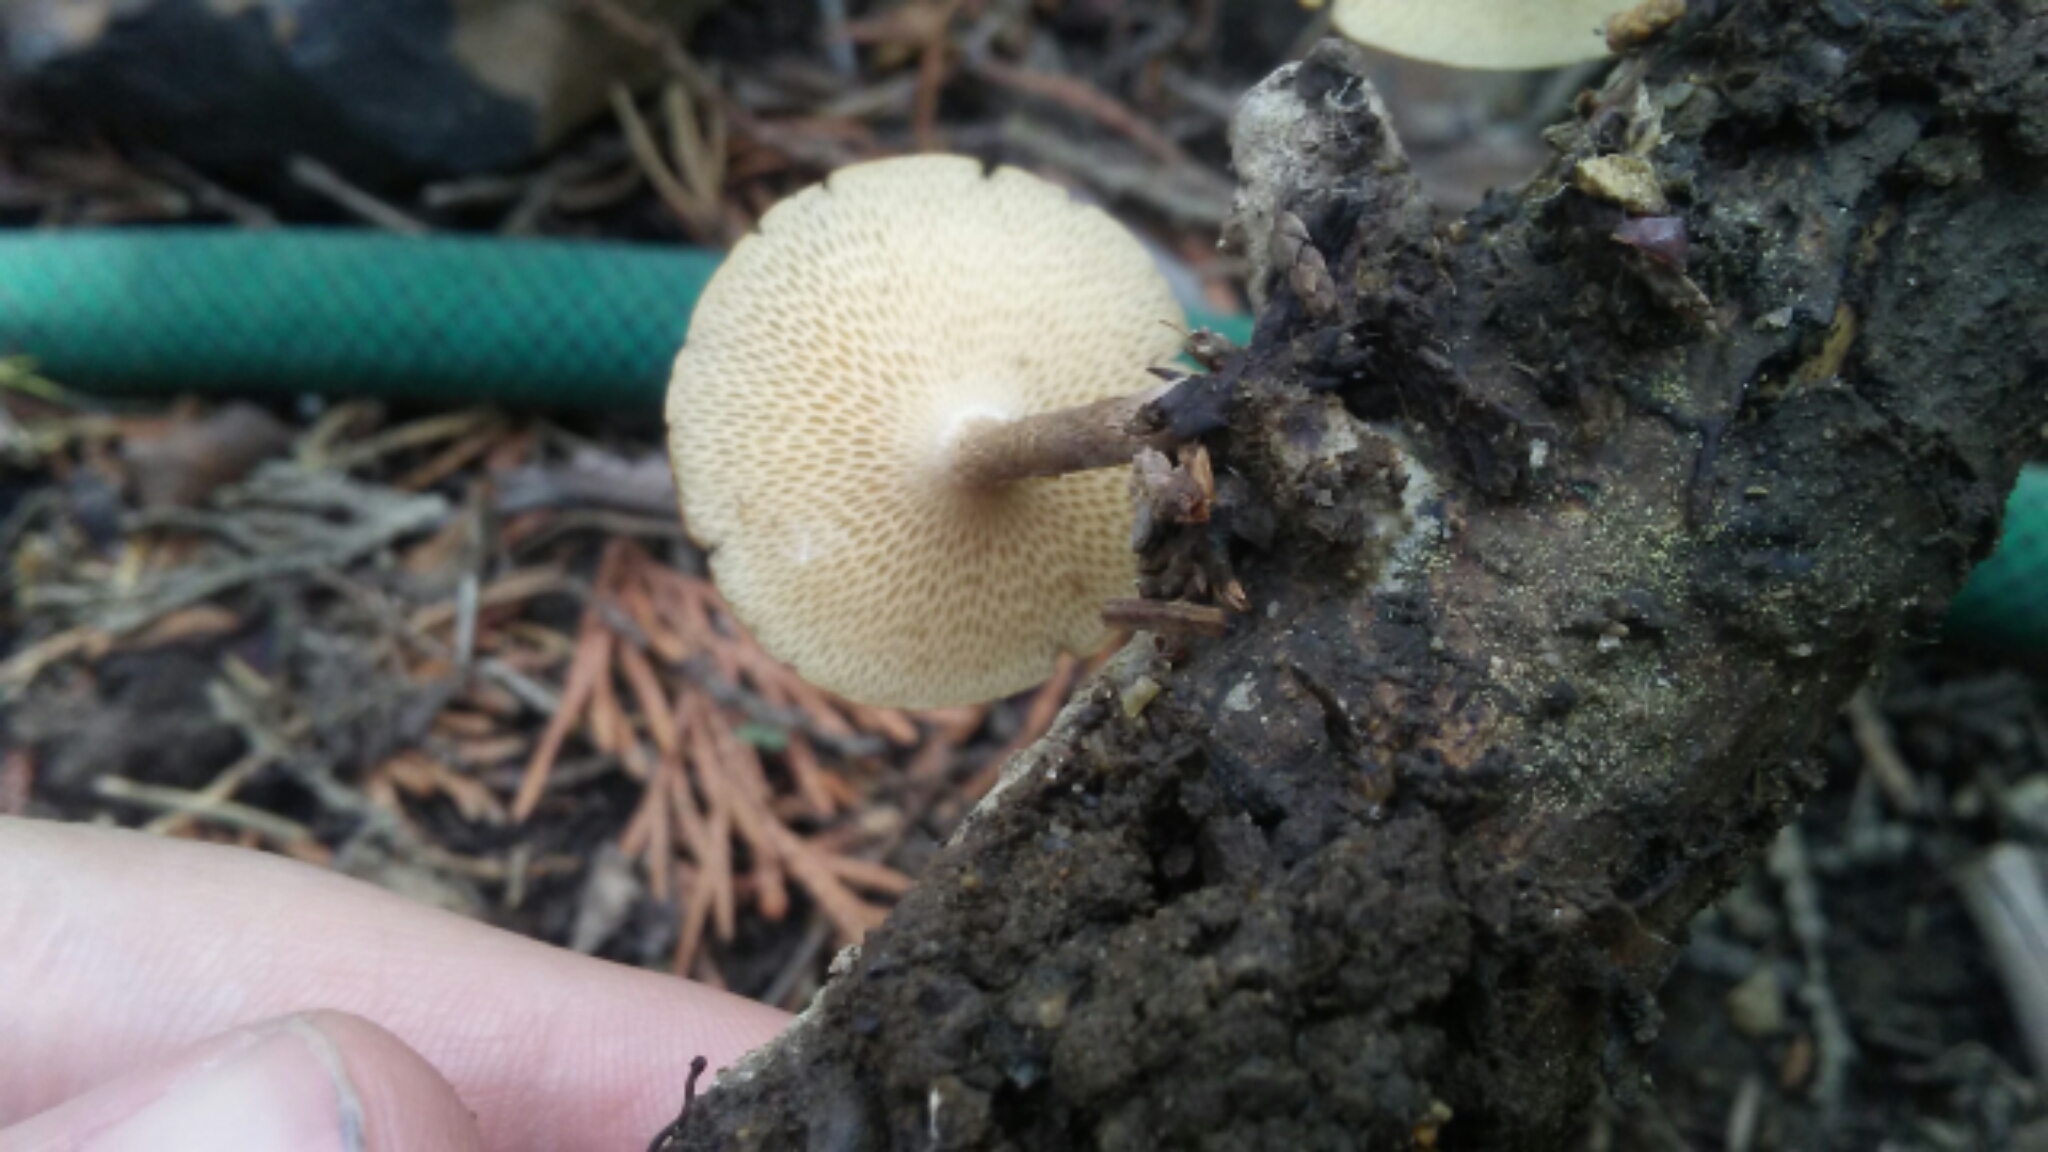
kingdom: Fungi
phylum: Basidiomycota
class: Agaricomycetes
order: Polyporales
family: Polyporaceae
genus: Lentinus
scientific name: Lentinus arcularius
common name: Spring polypore
